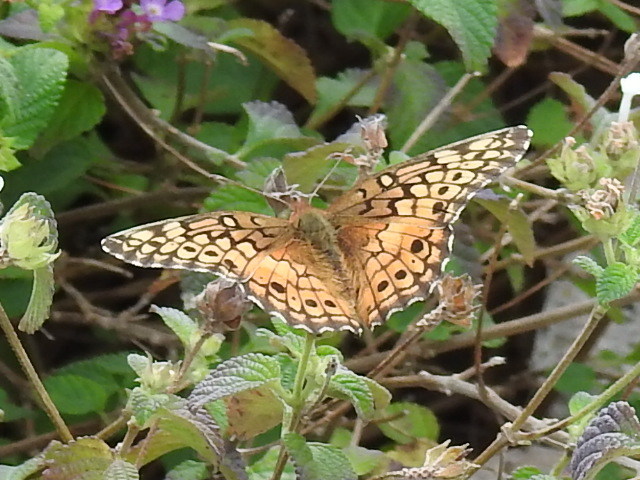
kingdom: Animalia
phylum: Arthropoda
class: Insecta
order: Lepidoptera
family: Nymphalidae
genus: Euptoieta
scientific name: Euptoieta claudia
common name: Variegated fritillary
